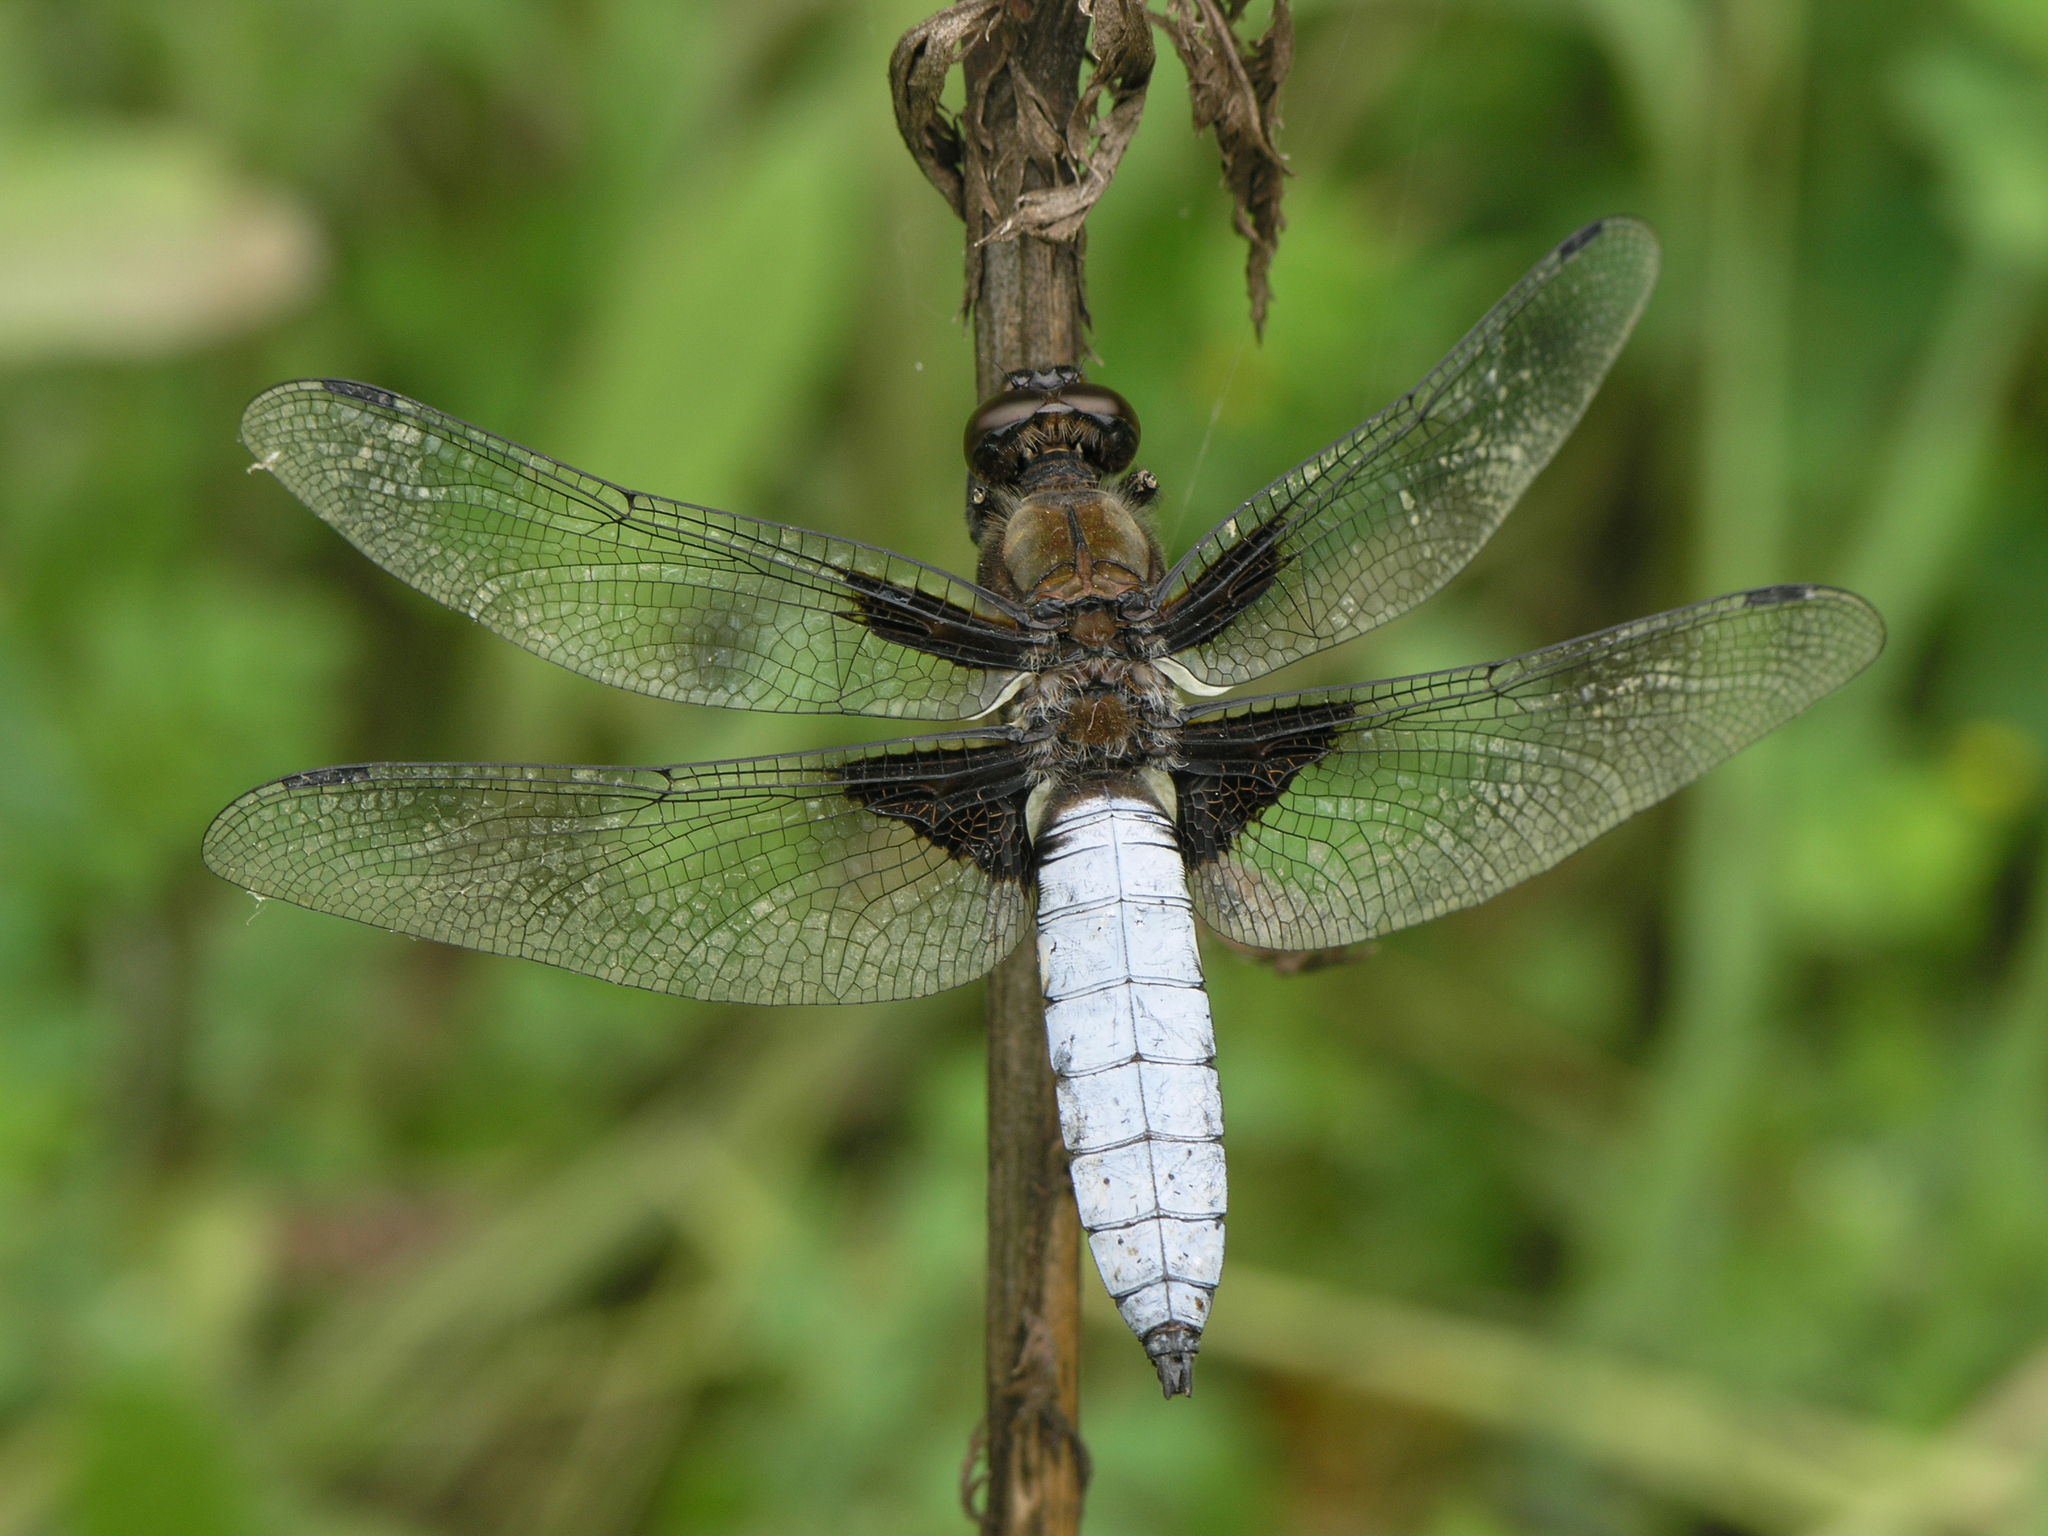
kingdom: Animalia
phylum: Arthropoda
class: Insecta
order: Odonata
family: Libellulidae
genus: Libellula
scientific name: Libellula depressa
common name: Broad-bodied chaser
